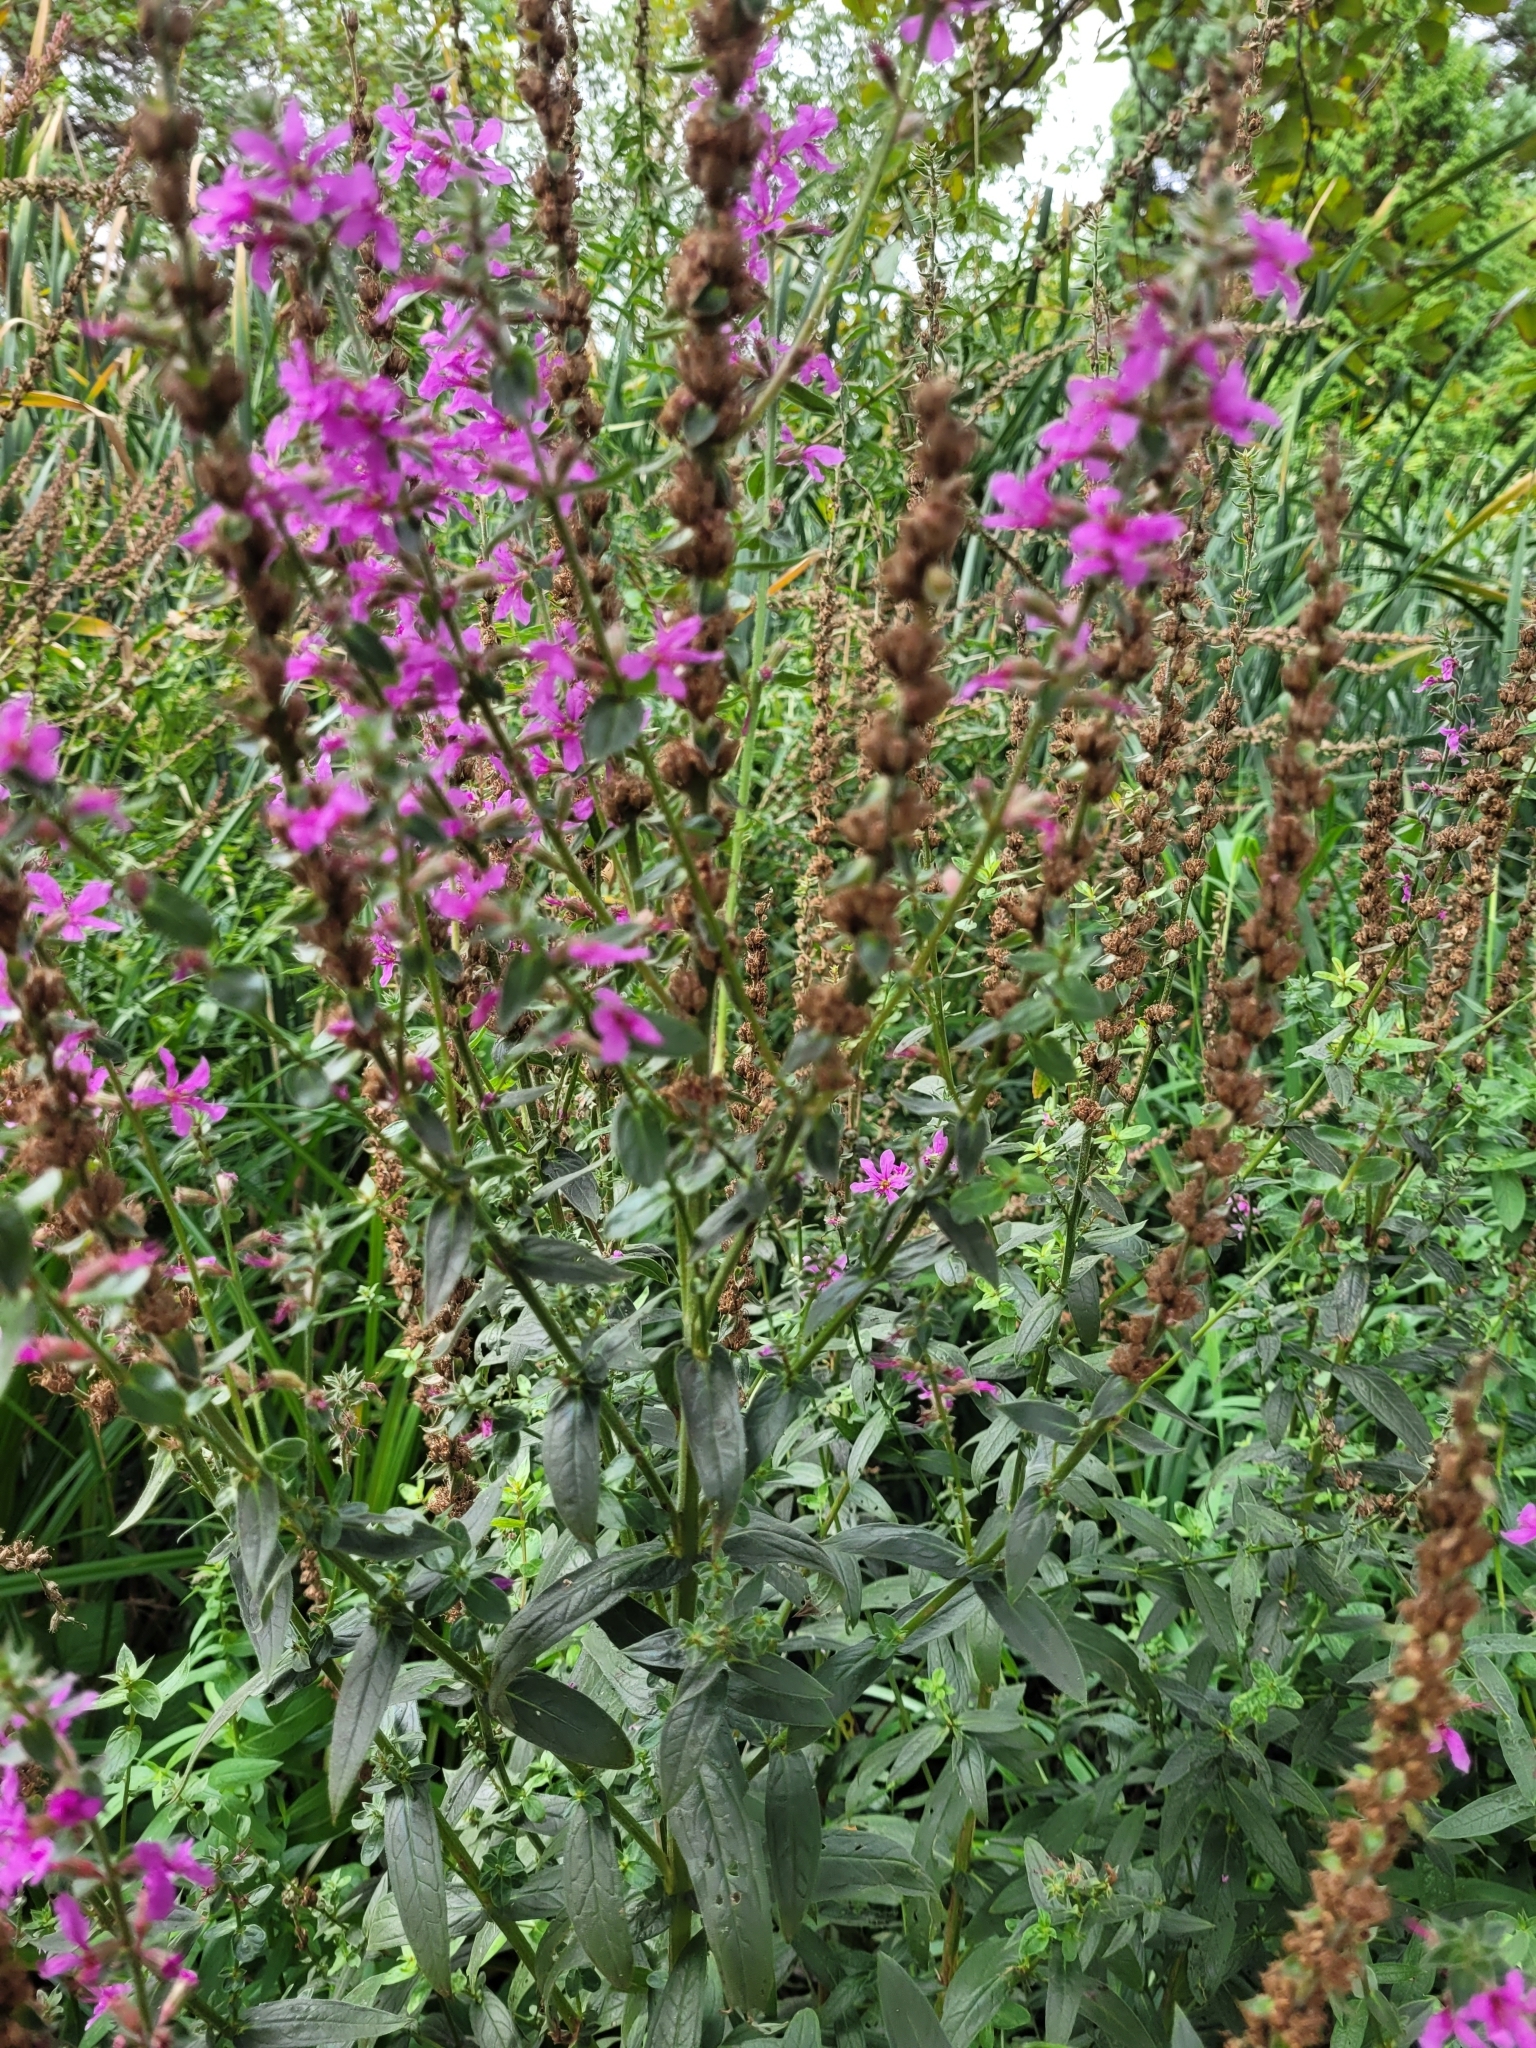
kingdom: Plantae
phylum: Tracheophyta
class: Magnoliopsida
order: Myrtales
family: Lythraceae
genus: Lythrum
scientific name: Lythrum salicaria
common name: Purple loosestrife
